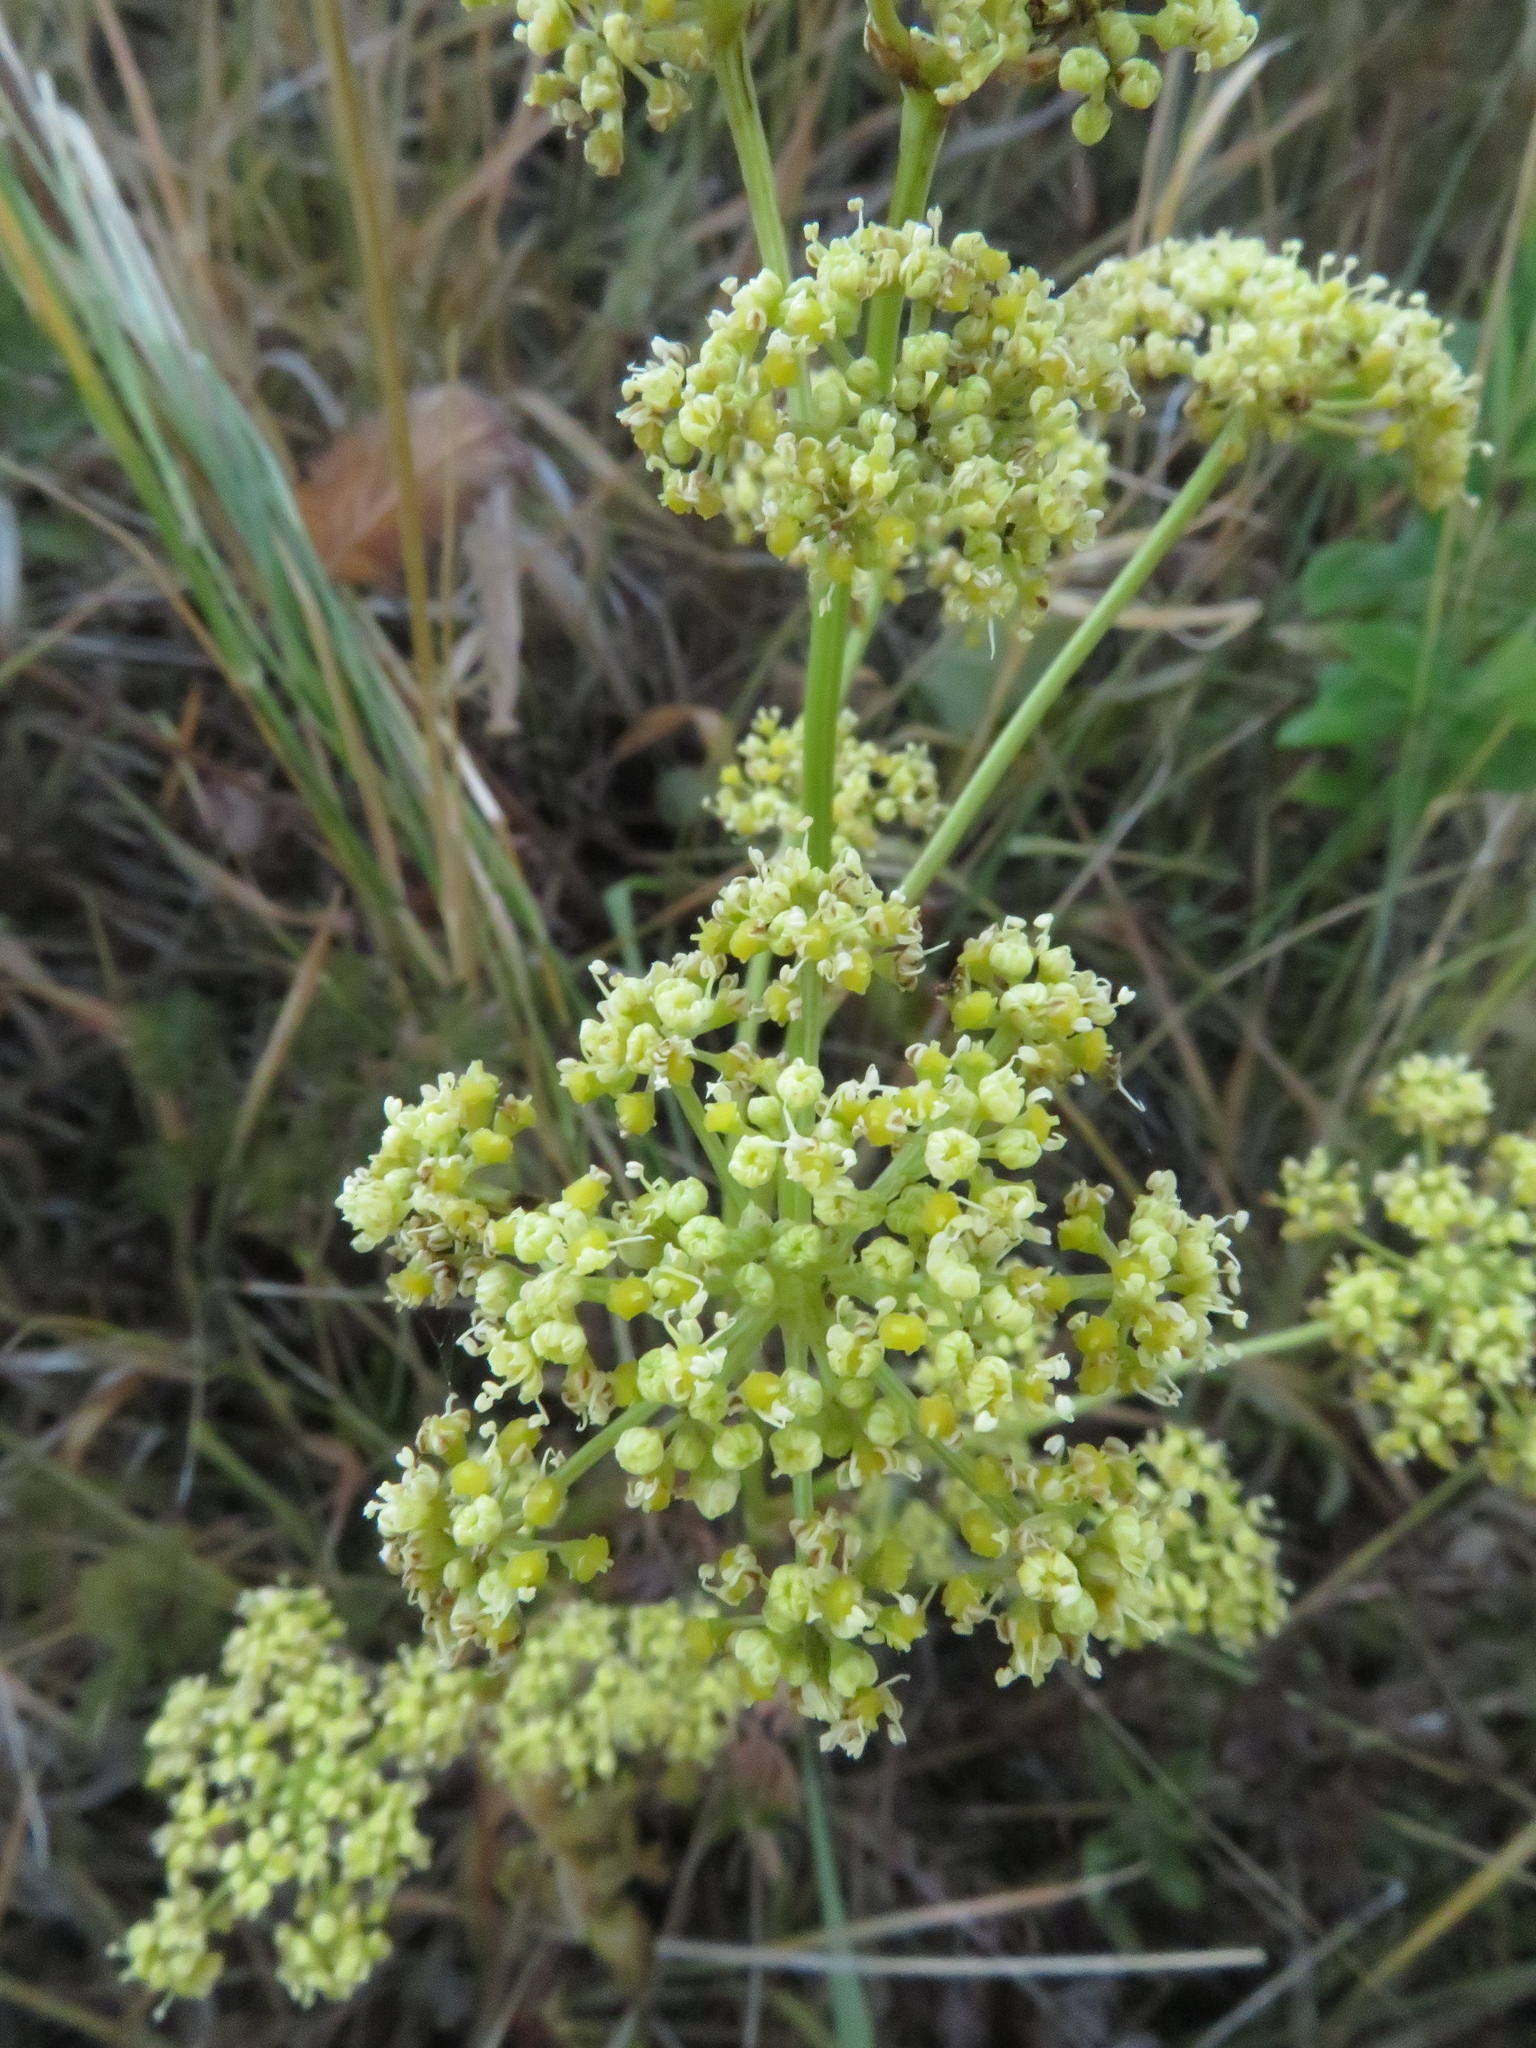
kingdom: Plantae
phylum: Tracheophyta
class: Magnoliopsida
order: Apiales
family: Apiaceae
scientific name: Apiaceae
